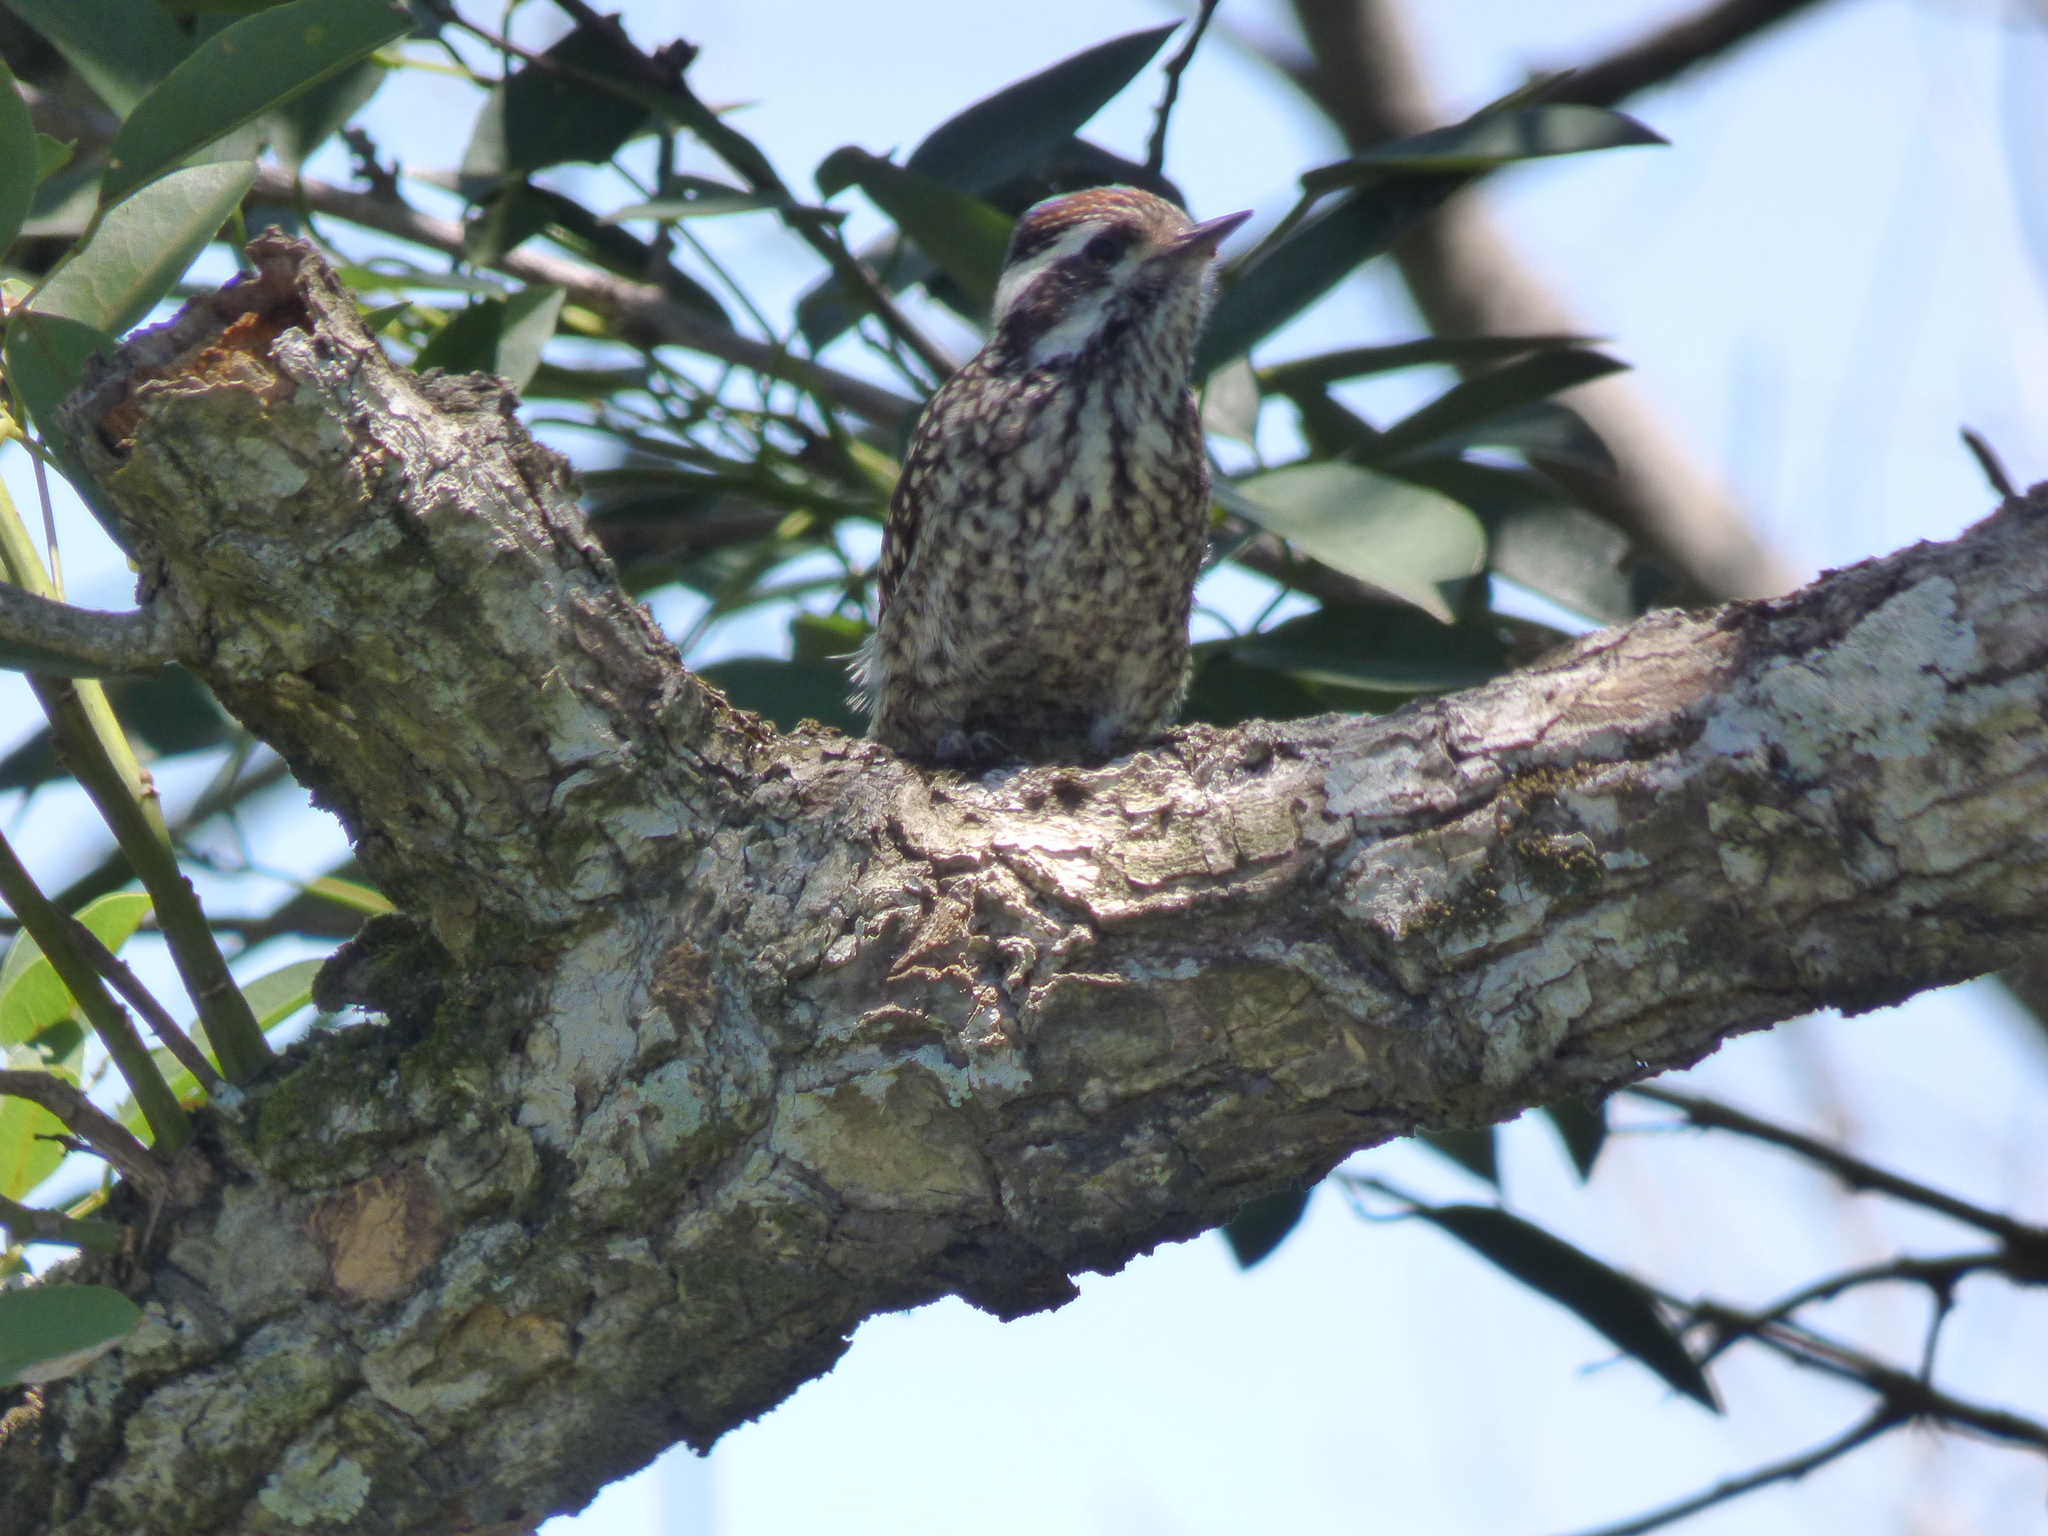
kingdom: Animalia
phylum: Chordata
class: Aves
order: Piciformes
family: Picidae
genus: Veniliornis
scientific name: Veniliornis mixtus
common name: Checkered woodpecker
